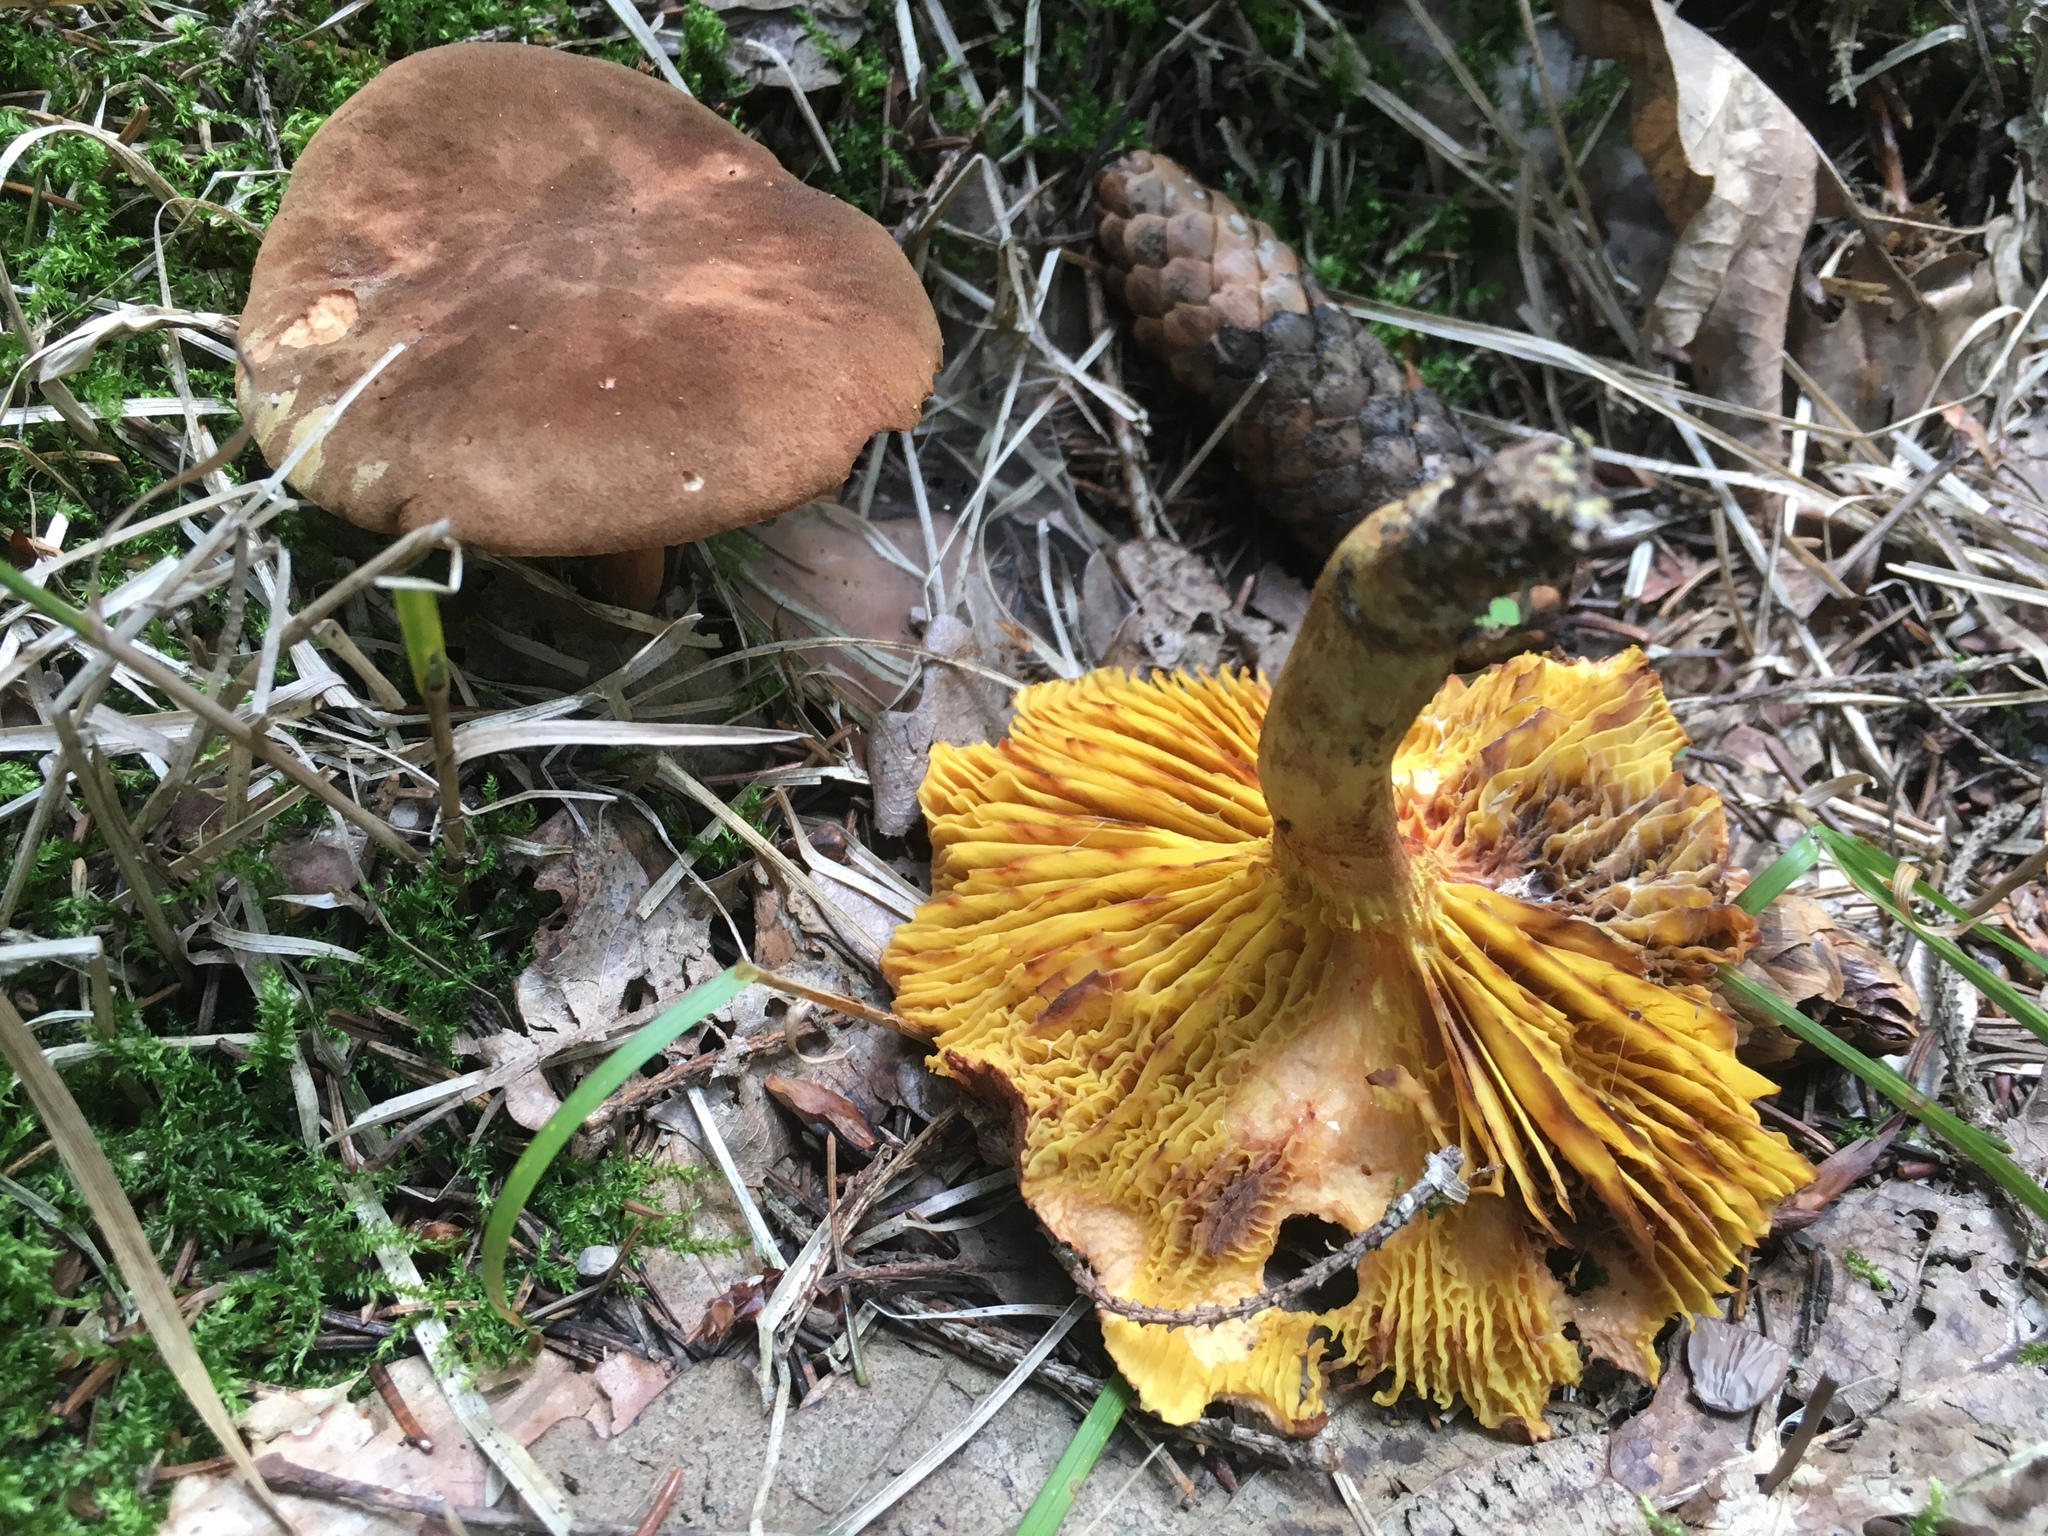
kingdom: Fungi
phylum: Basidiomycota
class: Agaricomycetes
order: Boletales
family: Boletaceae
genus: Phylloporus
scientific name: Phylloporus pelletieri
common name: Golden gilled bolete
